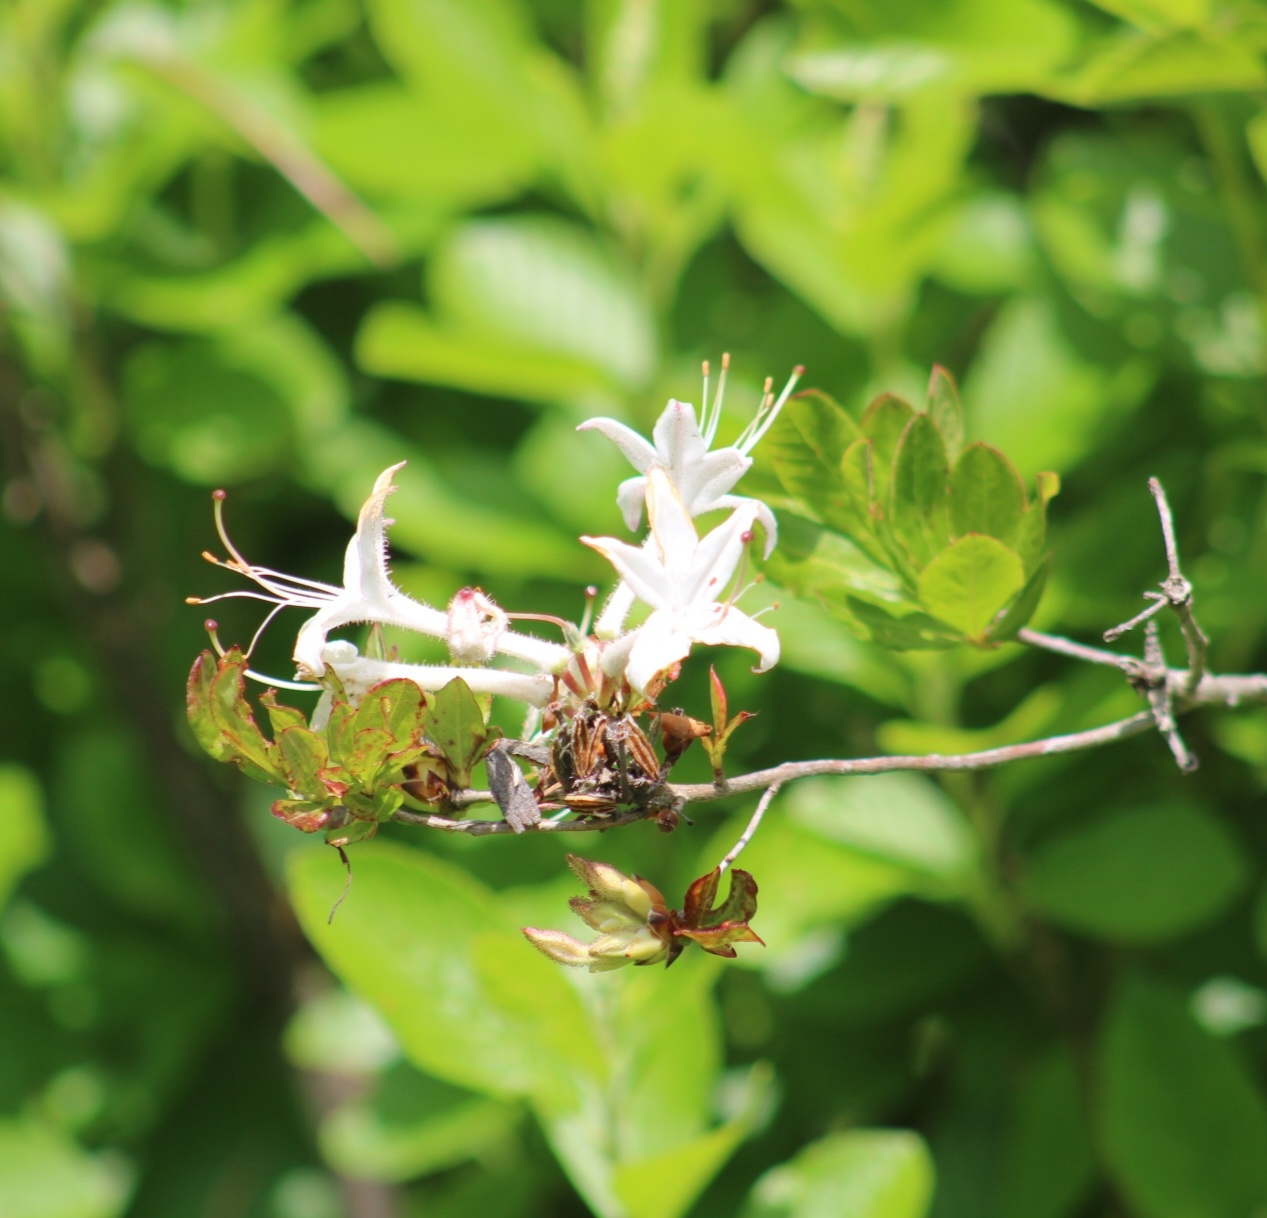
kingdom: Plantae
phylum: Tracheophyta
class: Magnoliopsida
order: Ericales
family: Ericaceae
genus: Rhododendron
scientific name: Rhododendron viscosum
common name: Clammy azalea
